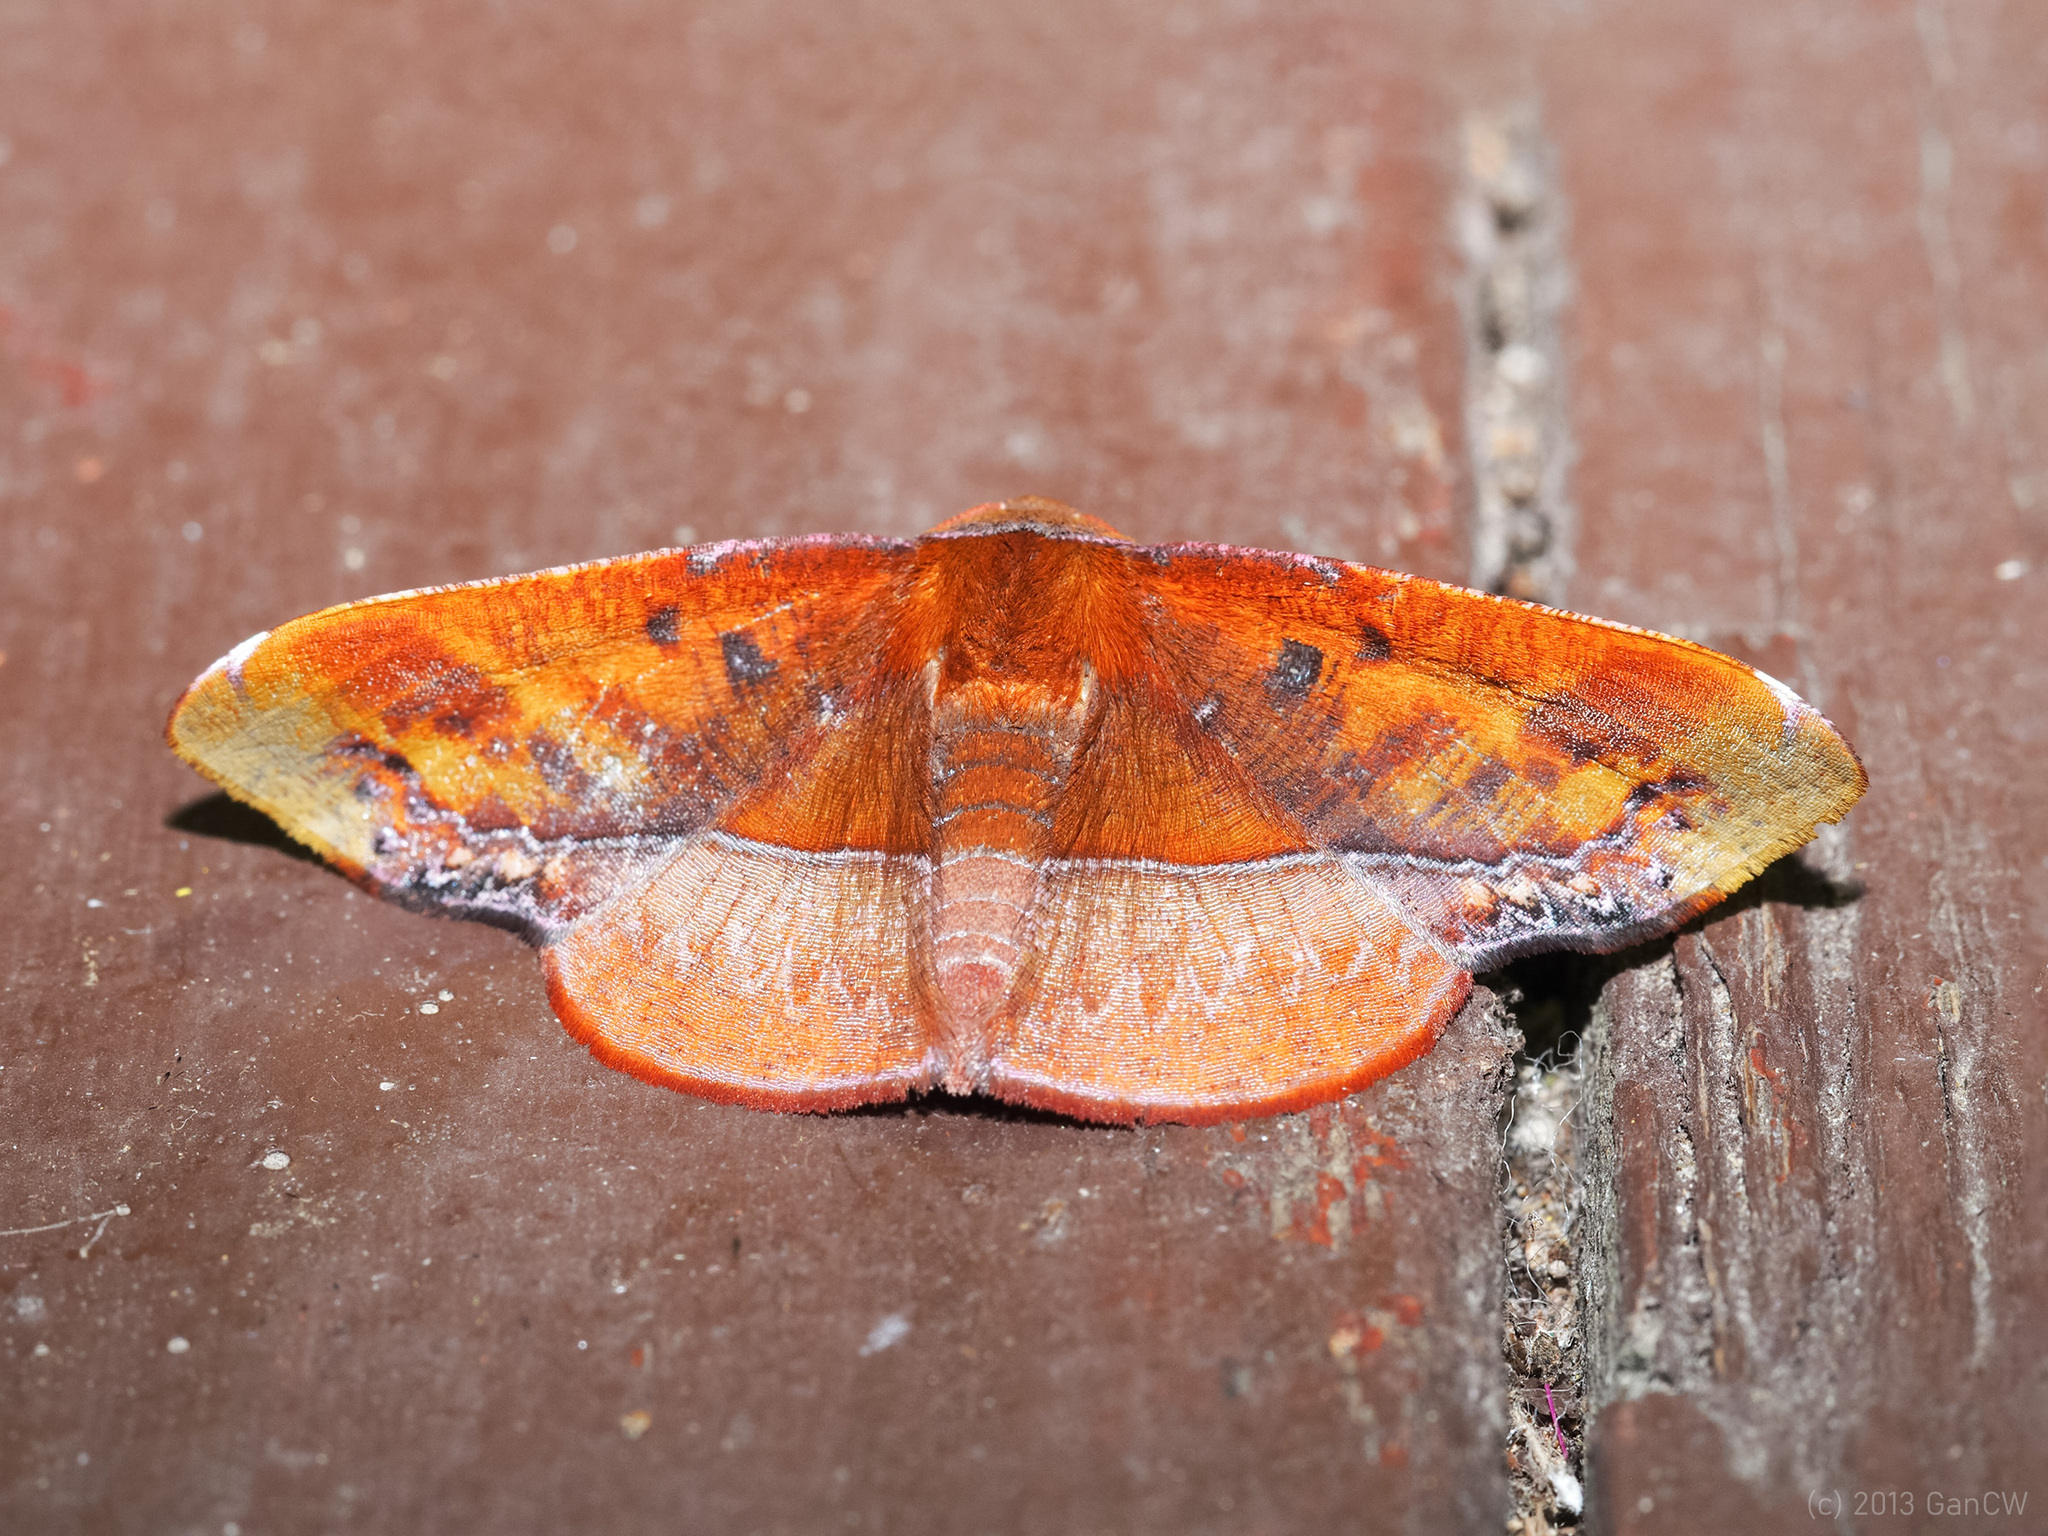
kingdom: Animalia
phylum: Arthropoda
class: Insecta
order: Lepidoptera
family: Geometridae
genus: Fascellina
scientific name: Fascellina clausaria
